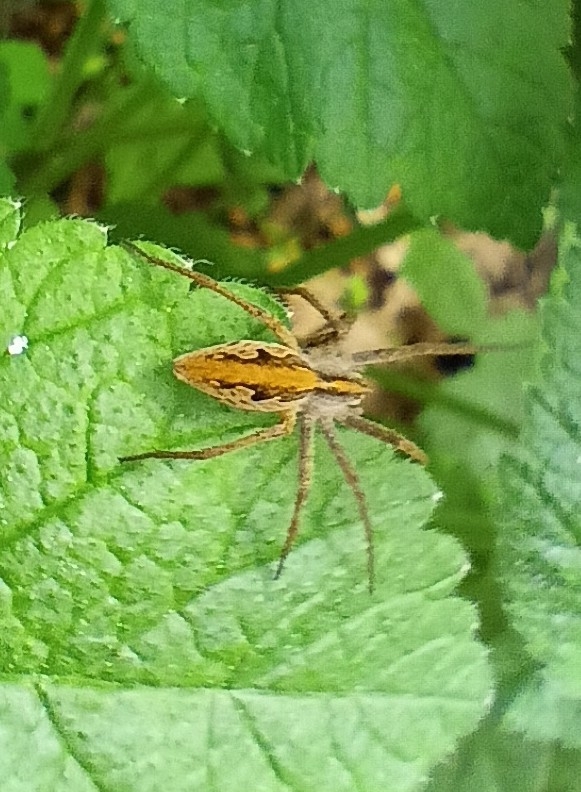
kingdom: Animalia
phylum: Arthropoda
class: Arachnida
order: Araneae
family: Pisauridae
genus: Pisaura
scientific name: Pisaura mirabilis
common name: Tent spider
